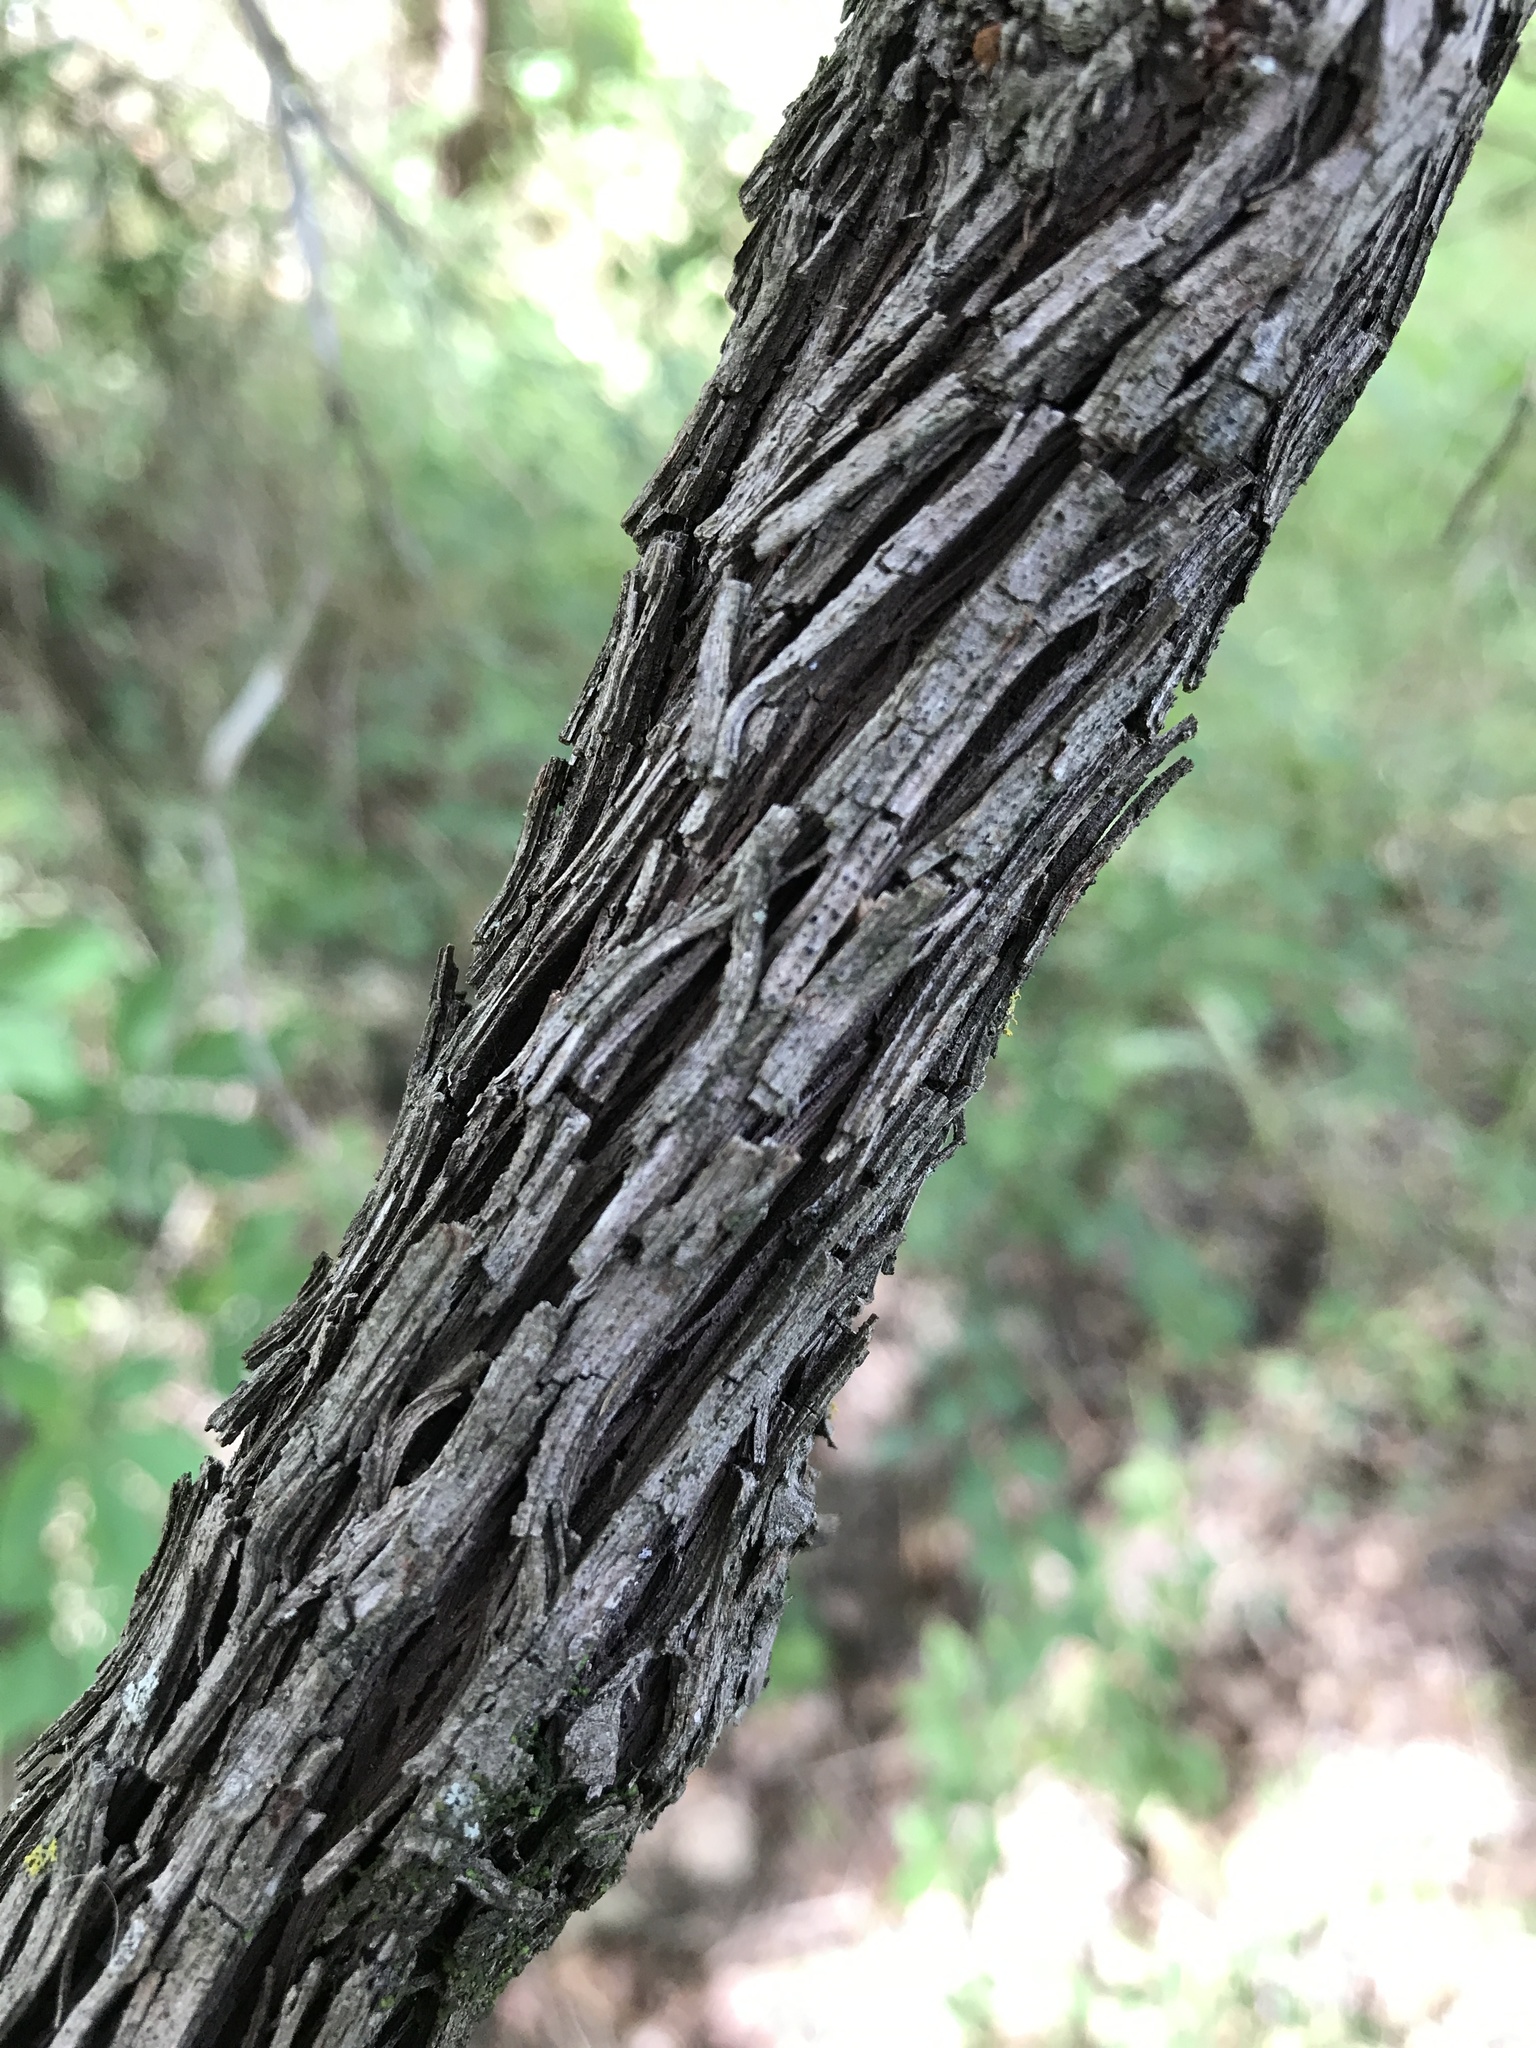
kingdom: Plantae
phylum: Tracheophyta
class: Magnoliopsida
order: Vitales
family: Vitaceae
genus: Vitis
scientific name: Vitis cinerea
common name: Ashy grape
